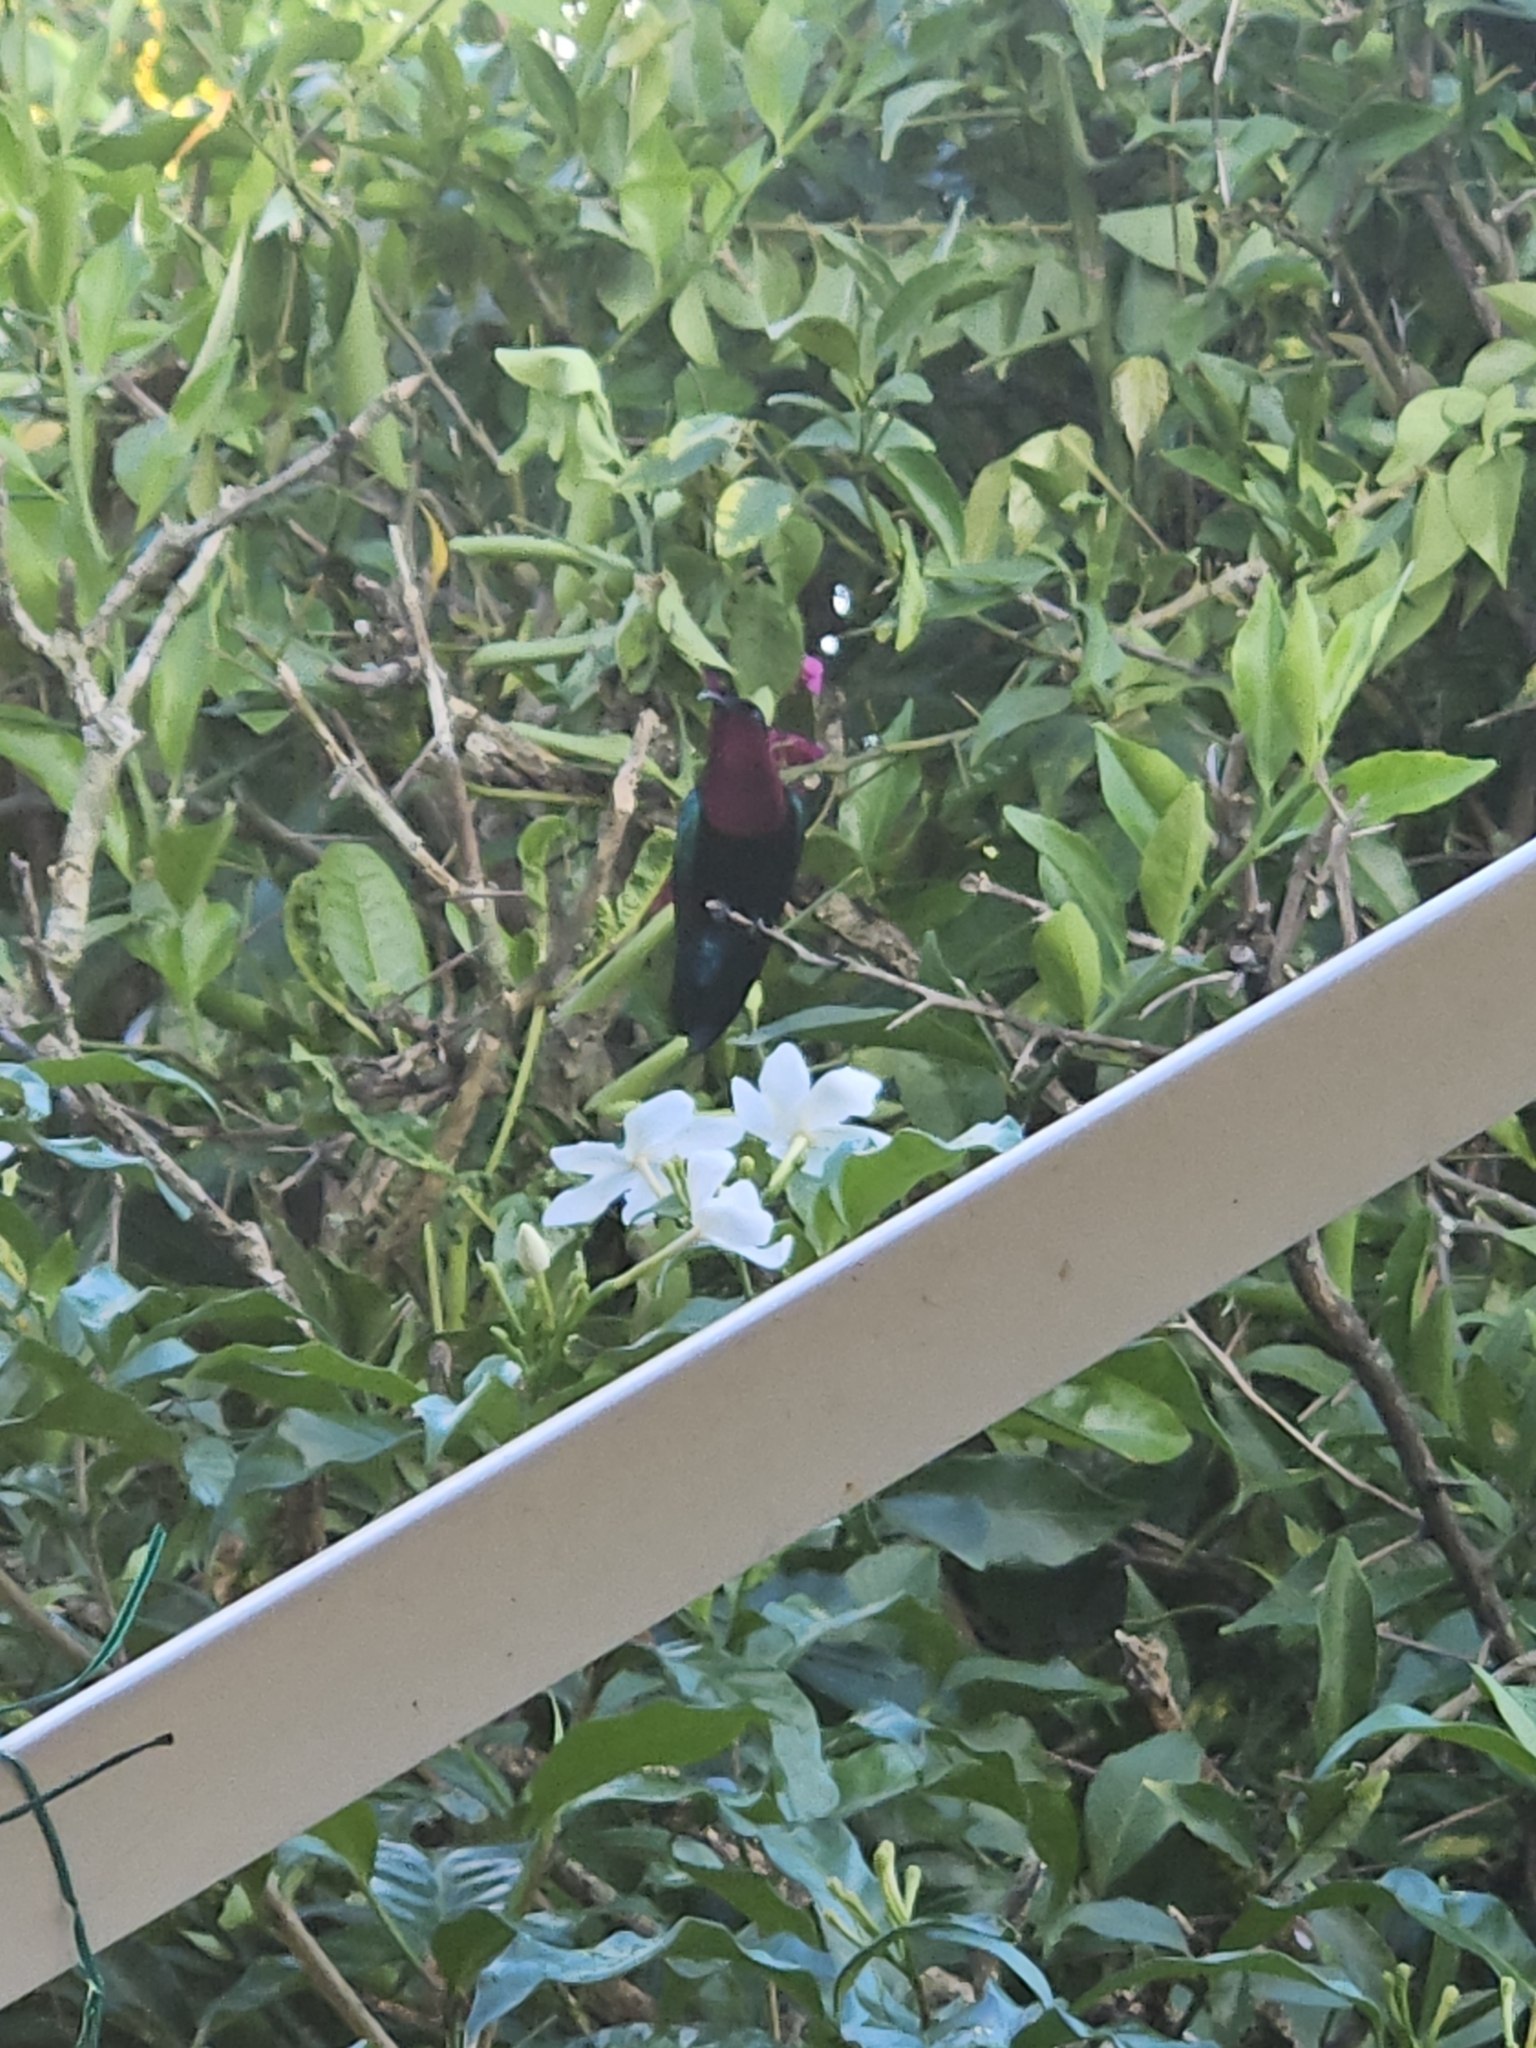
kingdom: Animalia
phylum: Chordata
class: Aves
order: Apodiformes
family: Trochilidae
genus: Eulampis
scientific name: Eulampis jugularis
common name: Purple-throated carib
